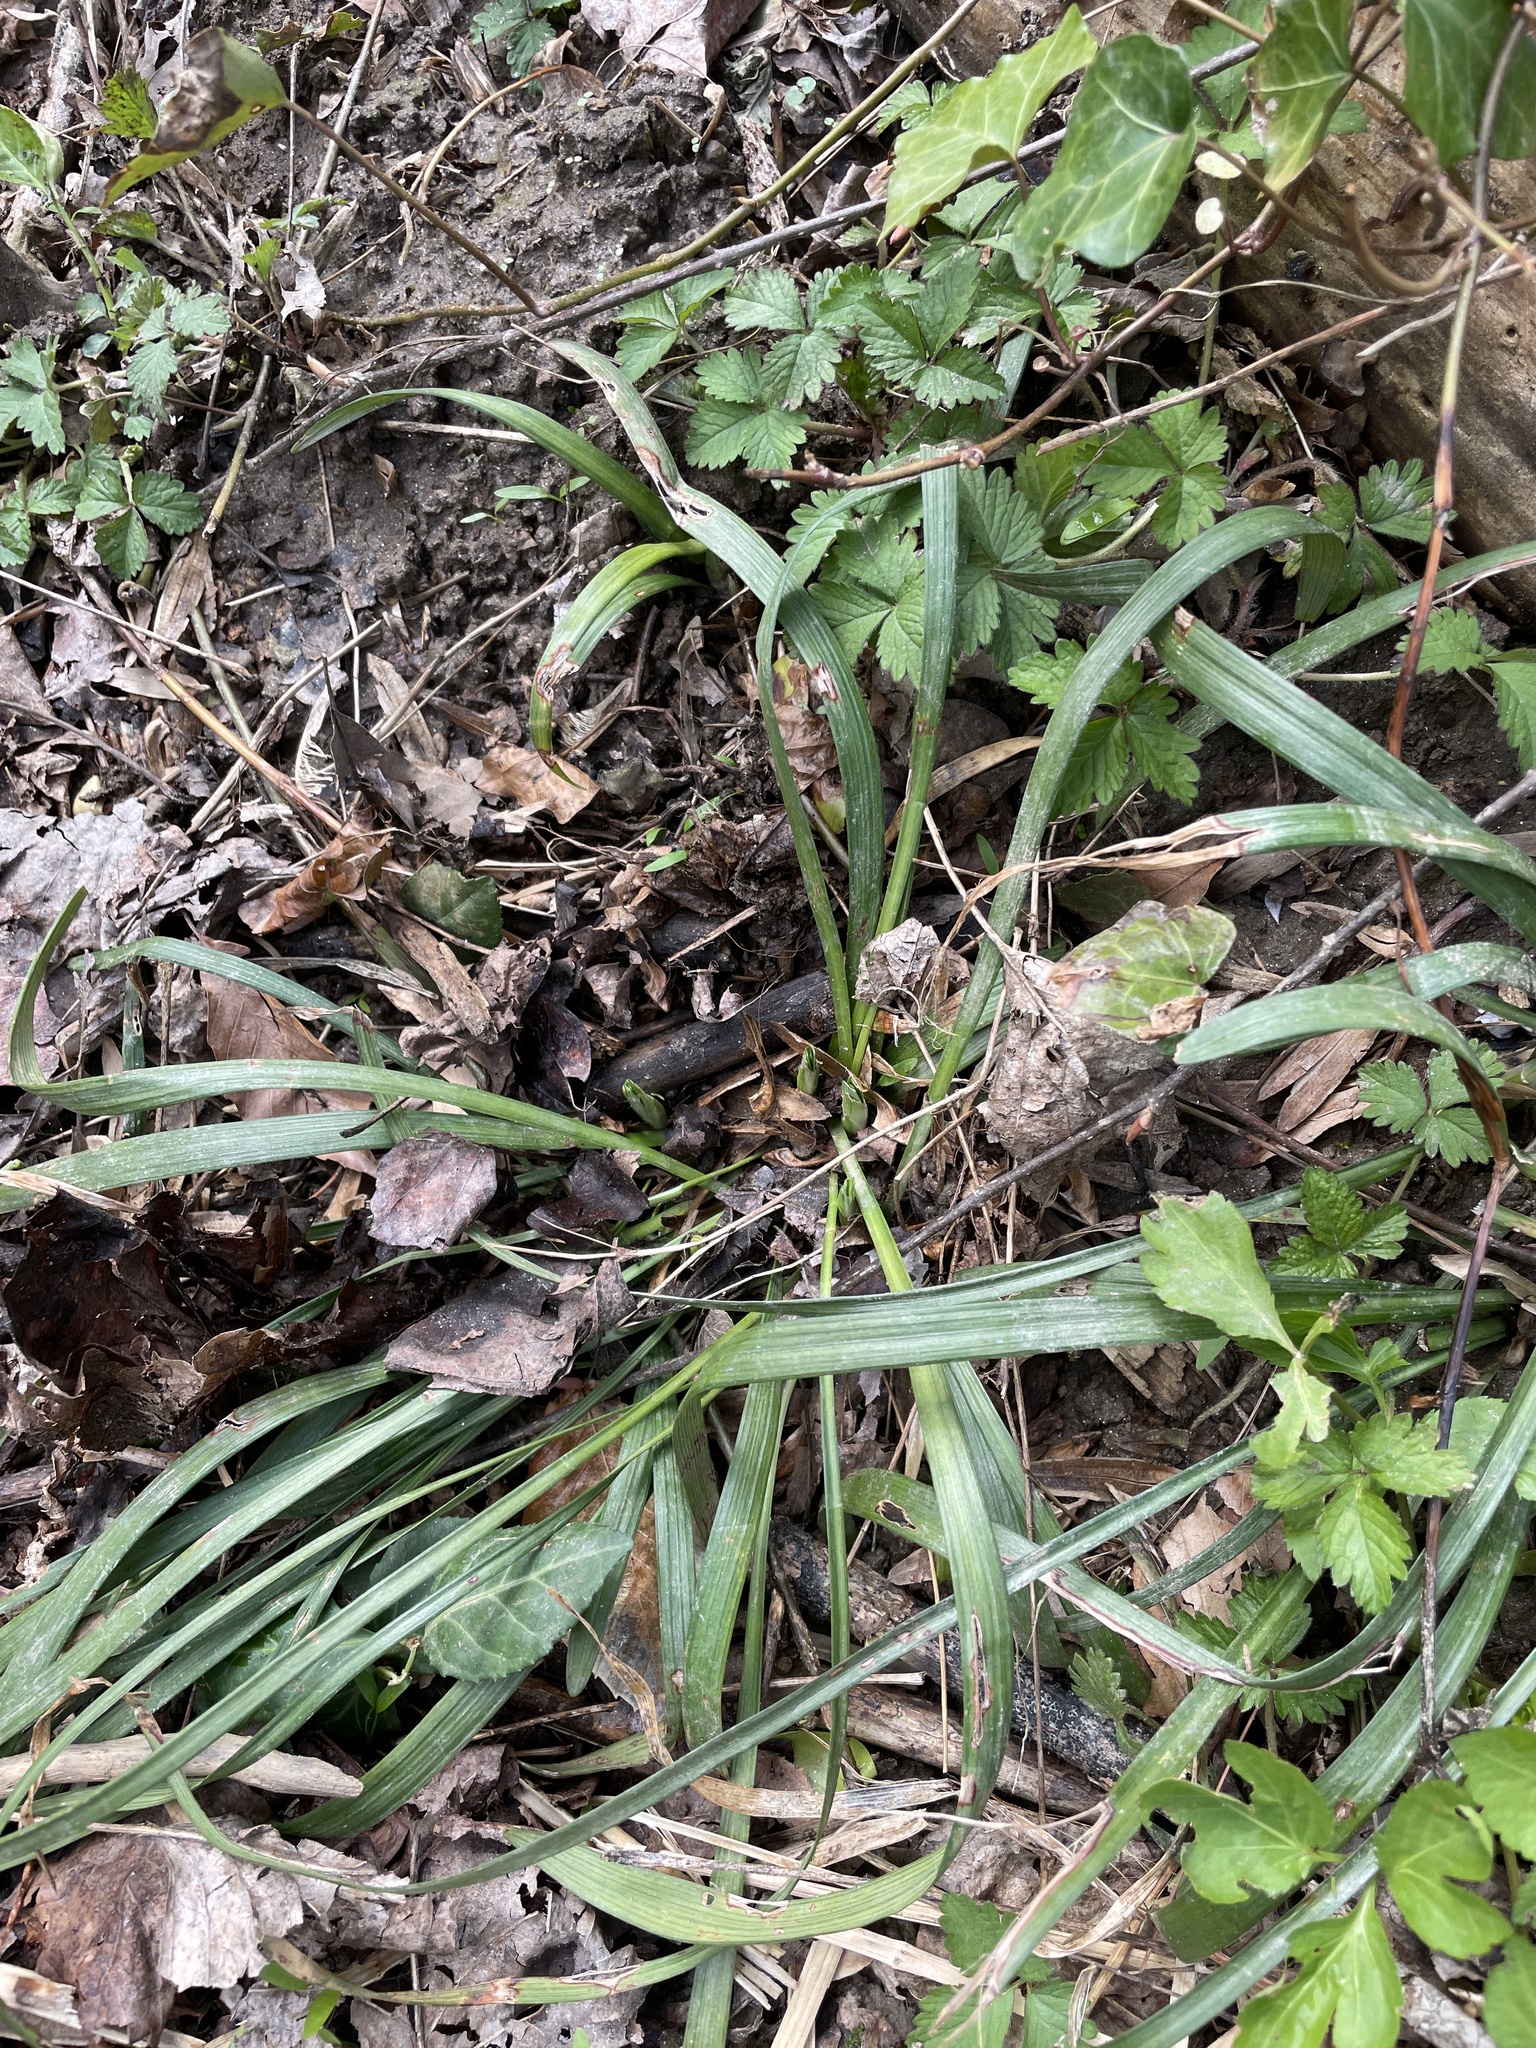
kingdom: Plantae
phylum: Tracheophyta
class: Liliopsida
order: Asparagales
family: Asparagaceae
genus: Liriope
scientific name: Liriope muscari
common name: Big blue lilyturf
